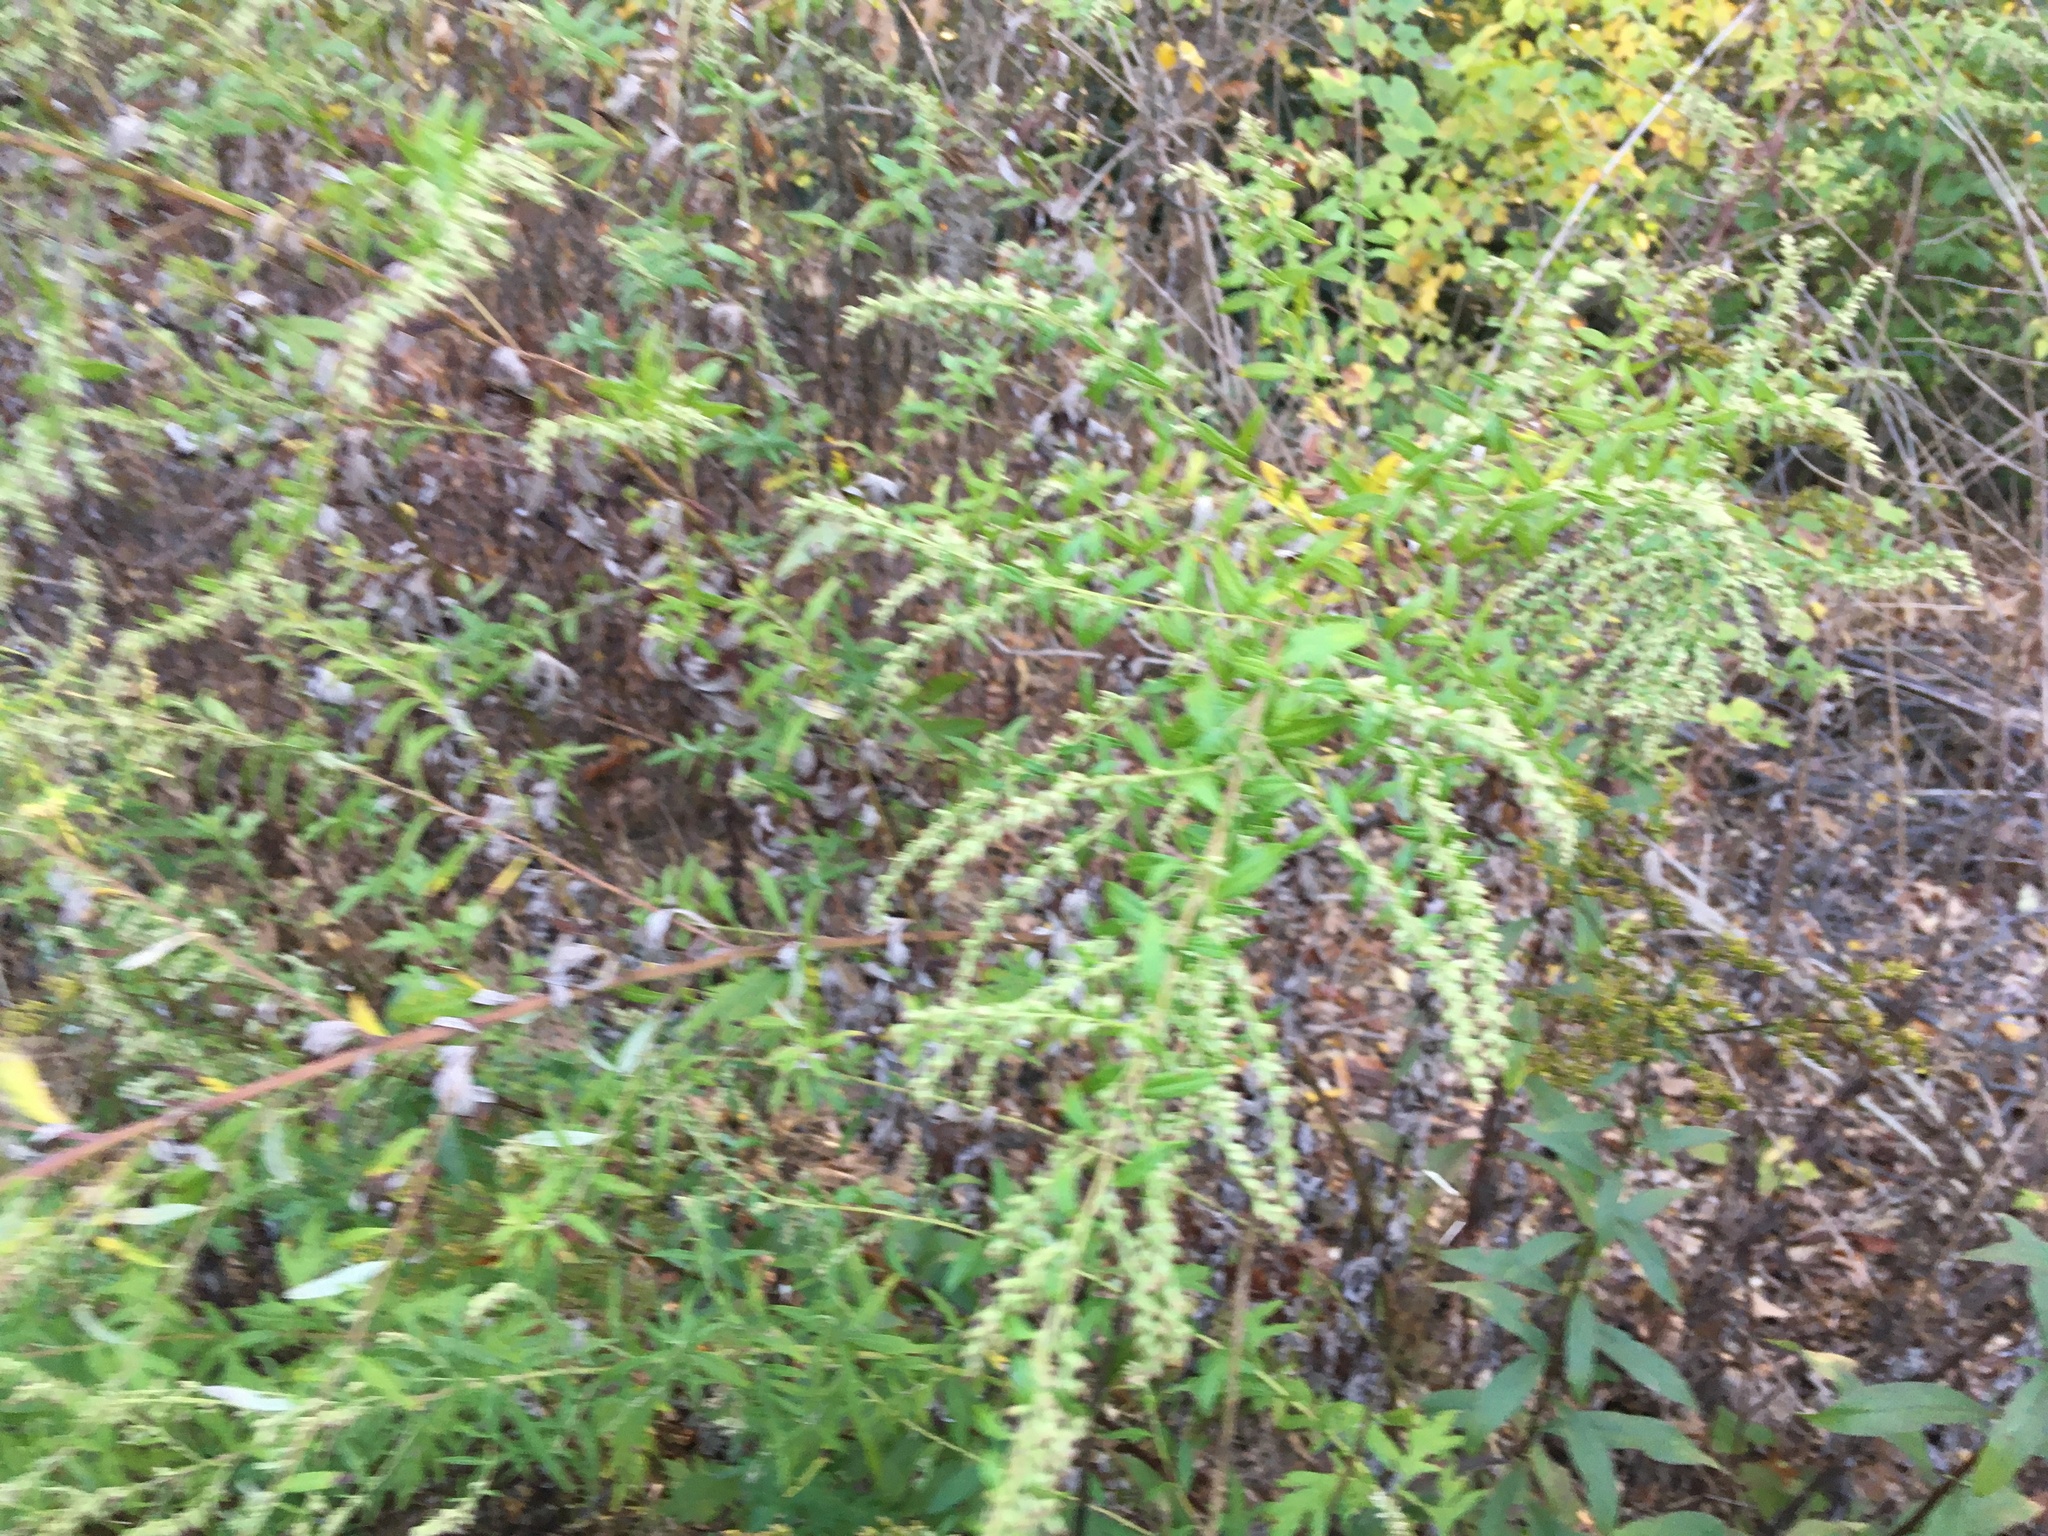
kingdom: Plantae
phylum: Tracheophyta
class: Magnoliopsida
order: Asterales
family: Asteraceae
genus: Artemisia
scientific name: Artemisia vulgaris
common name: Mugwort
